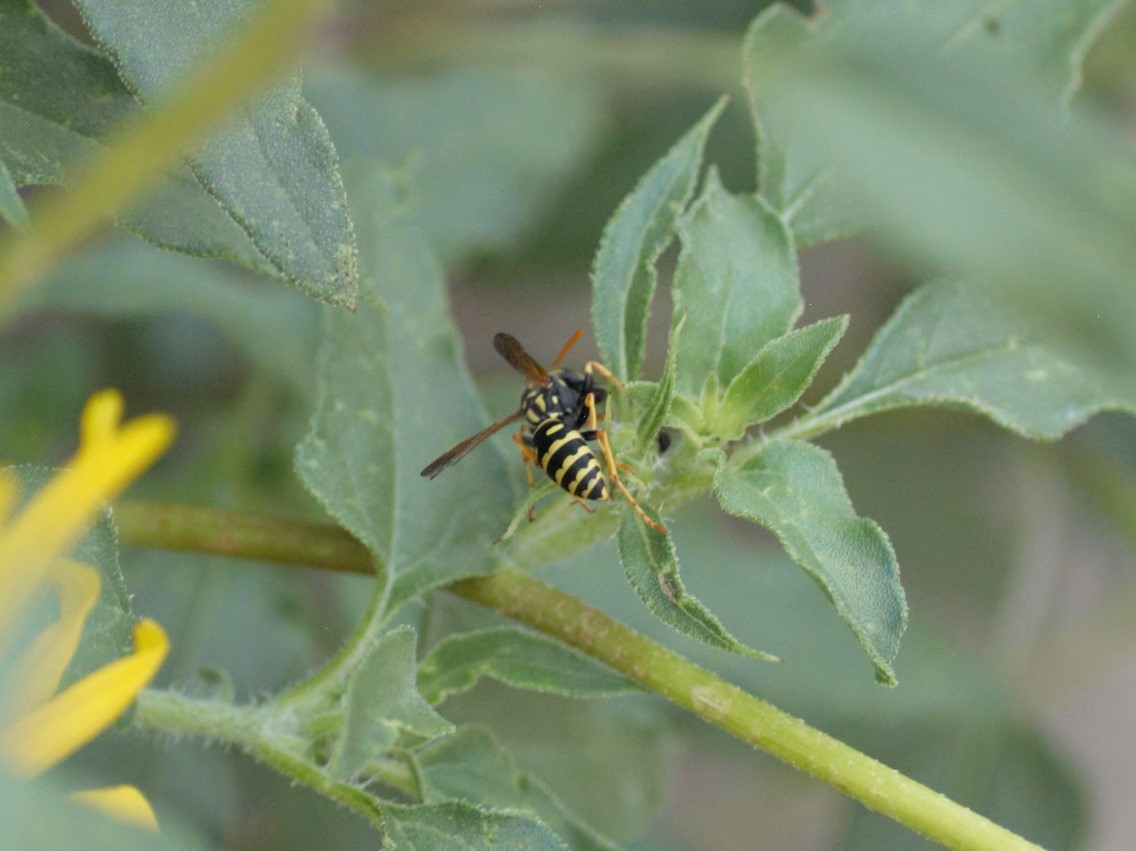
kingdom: Animalia
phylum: Arthropoda
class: Insecta
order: Hymenoptera
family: Eumenidae
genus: Polistes
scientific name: Polistes dominula
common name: Paper wasp
